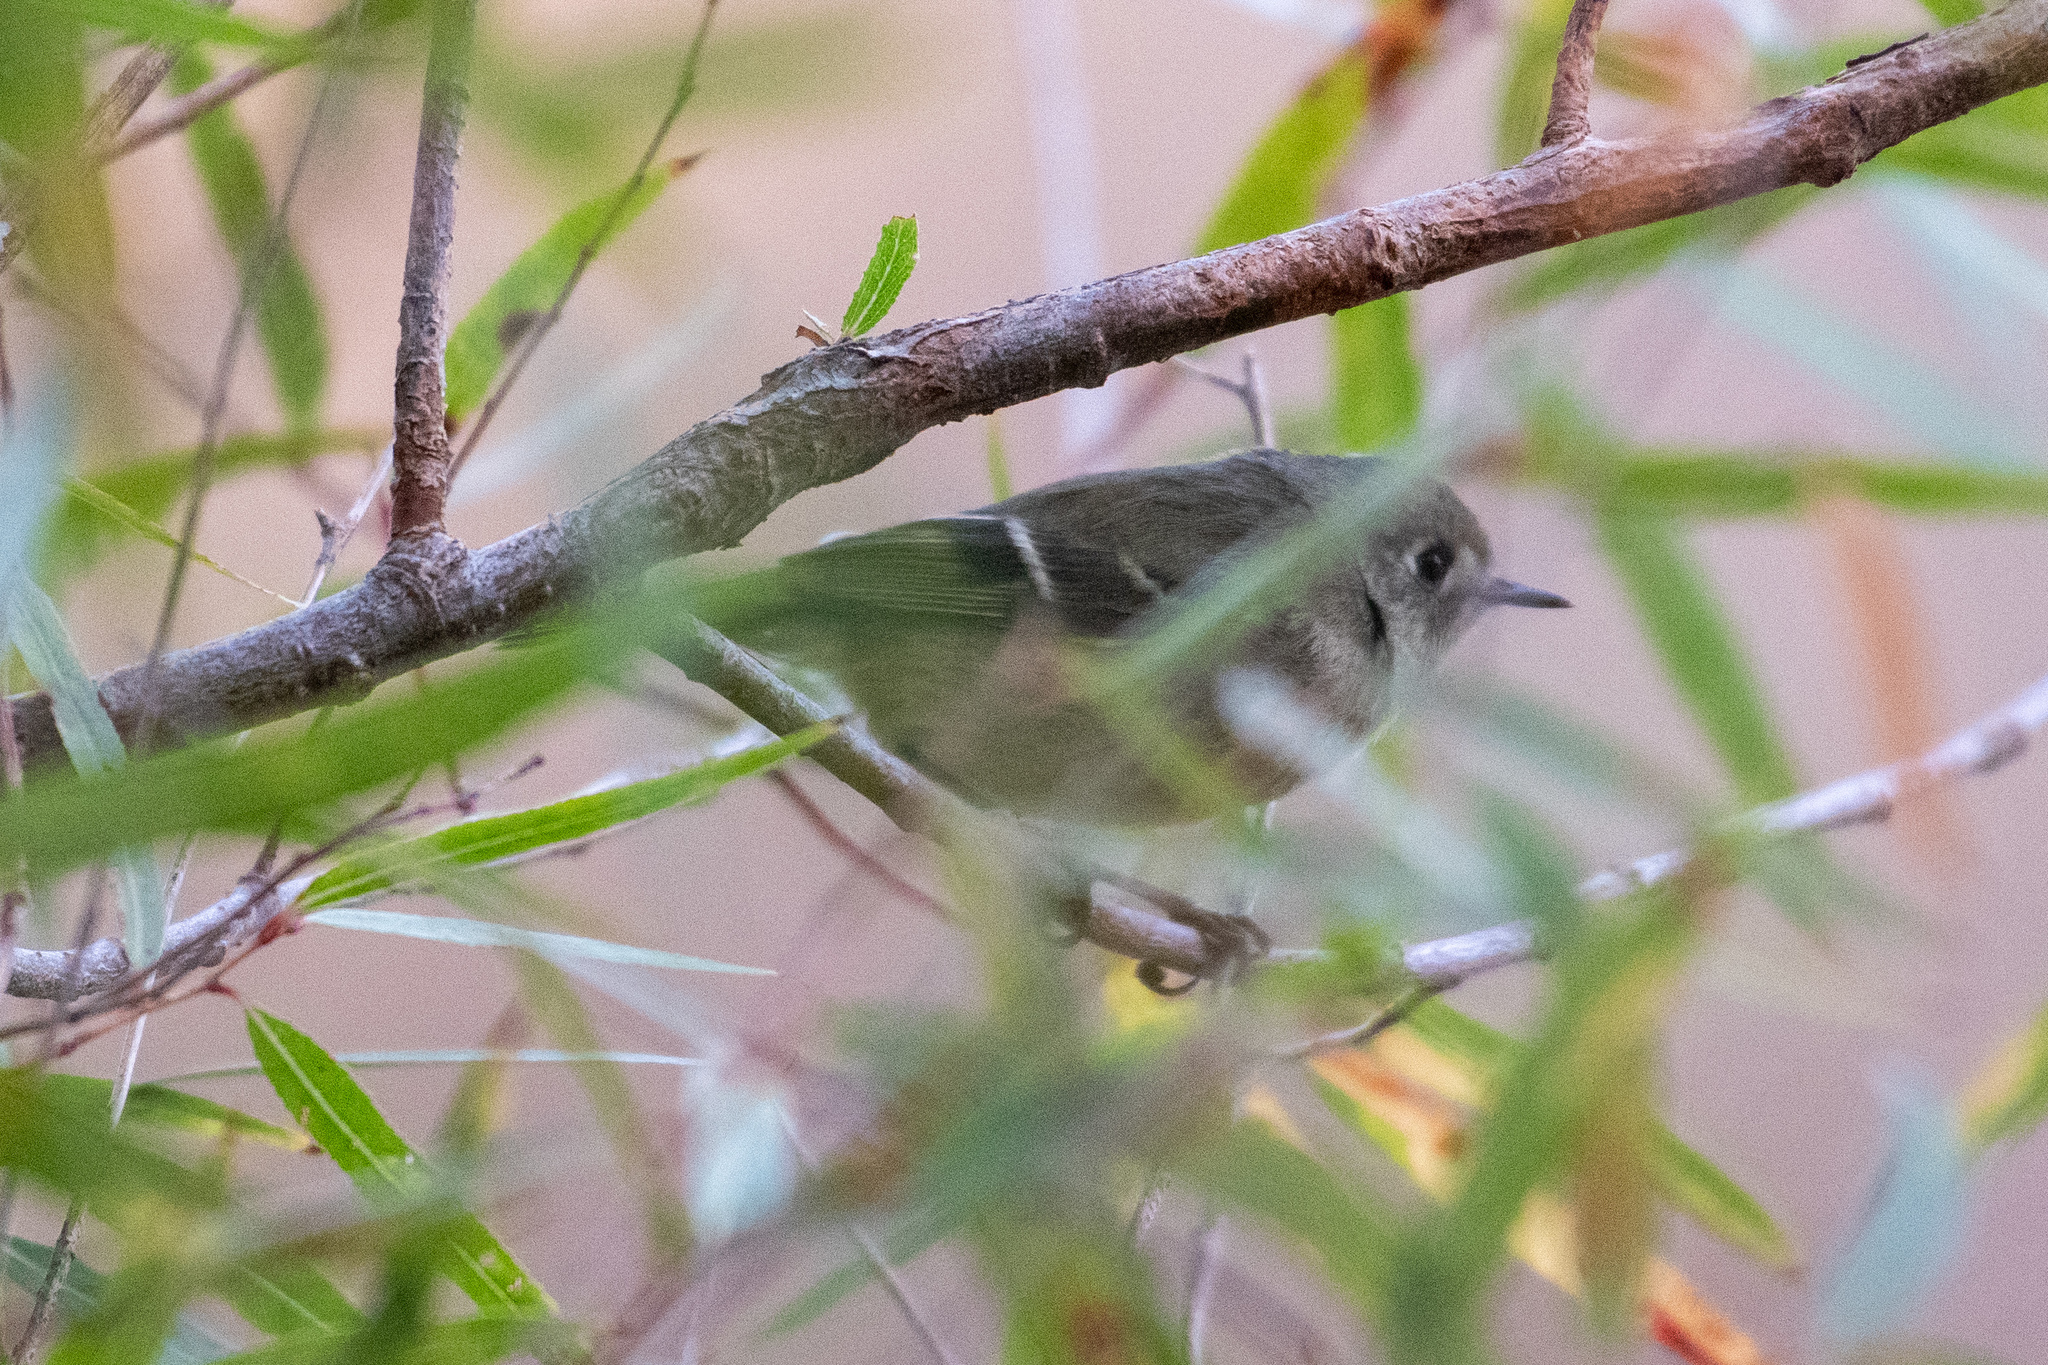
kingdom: Animalia
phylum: Chordata
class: Aves
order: Passeriformes
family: Regulidae
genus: Regulus
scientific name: Regulus calendula
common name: Ruby-crowned kinglet
